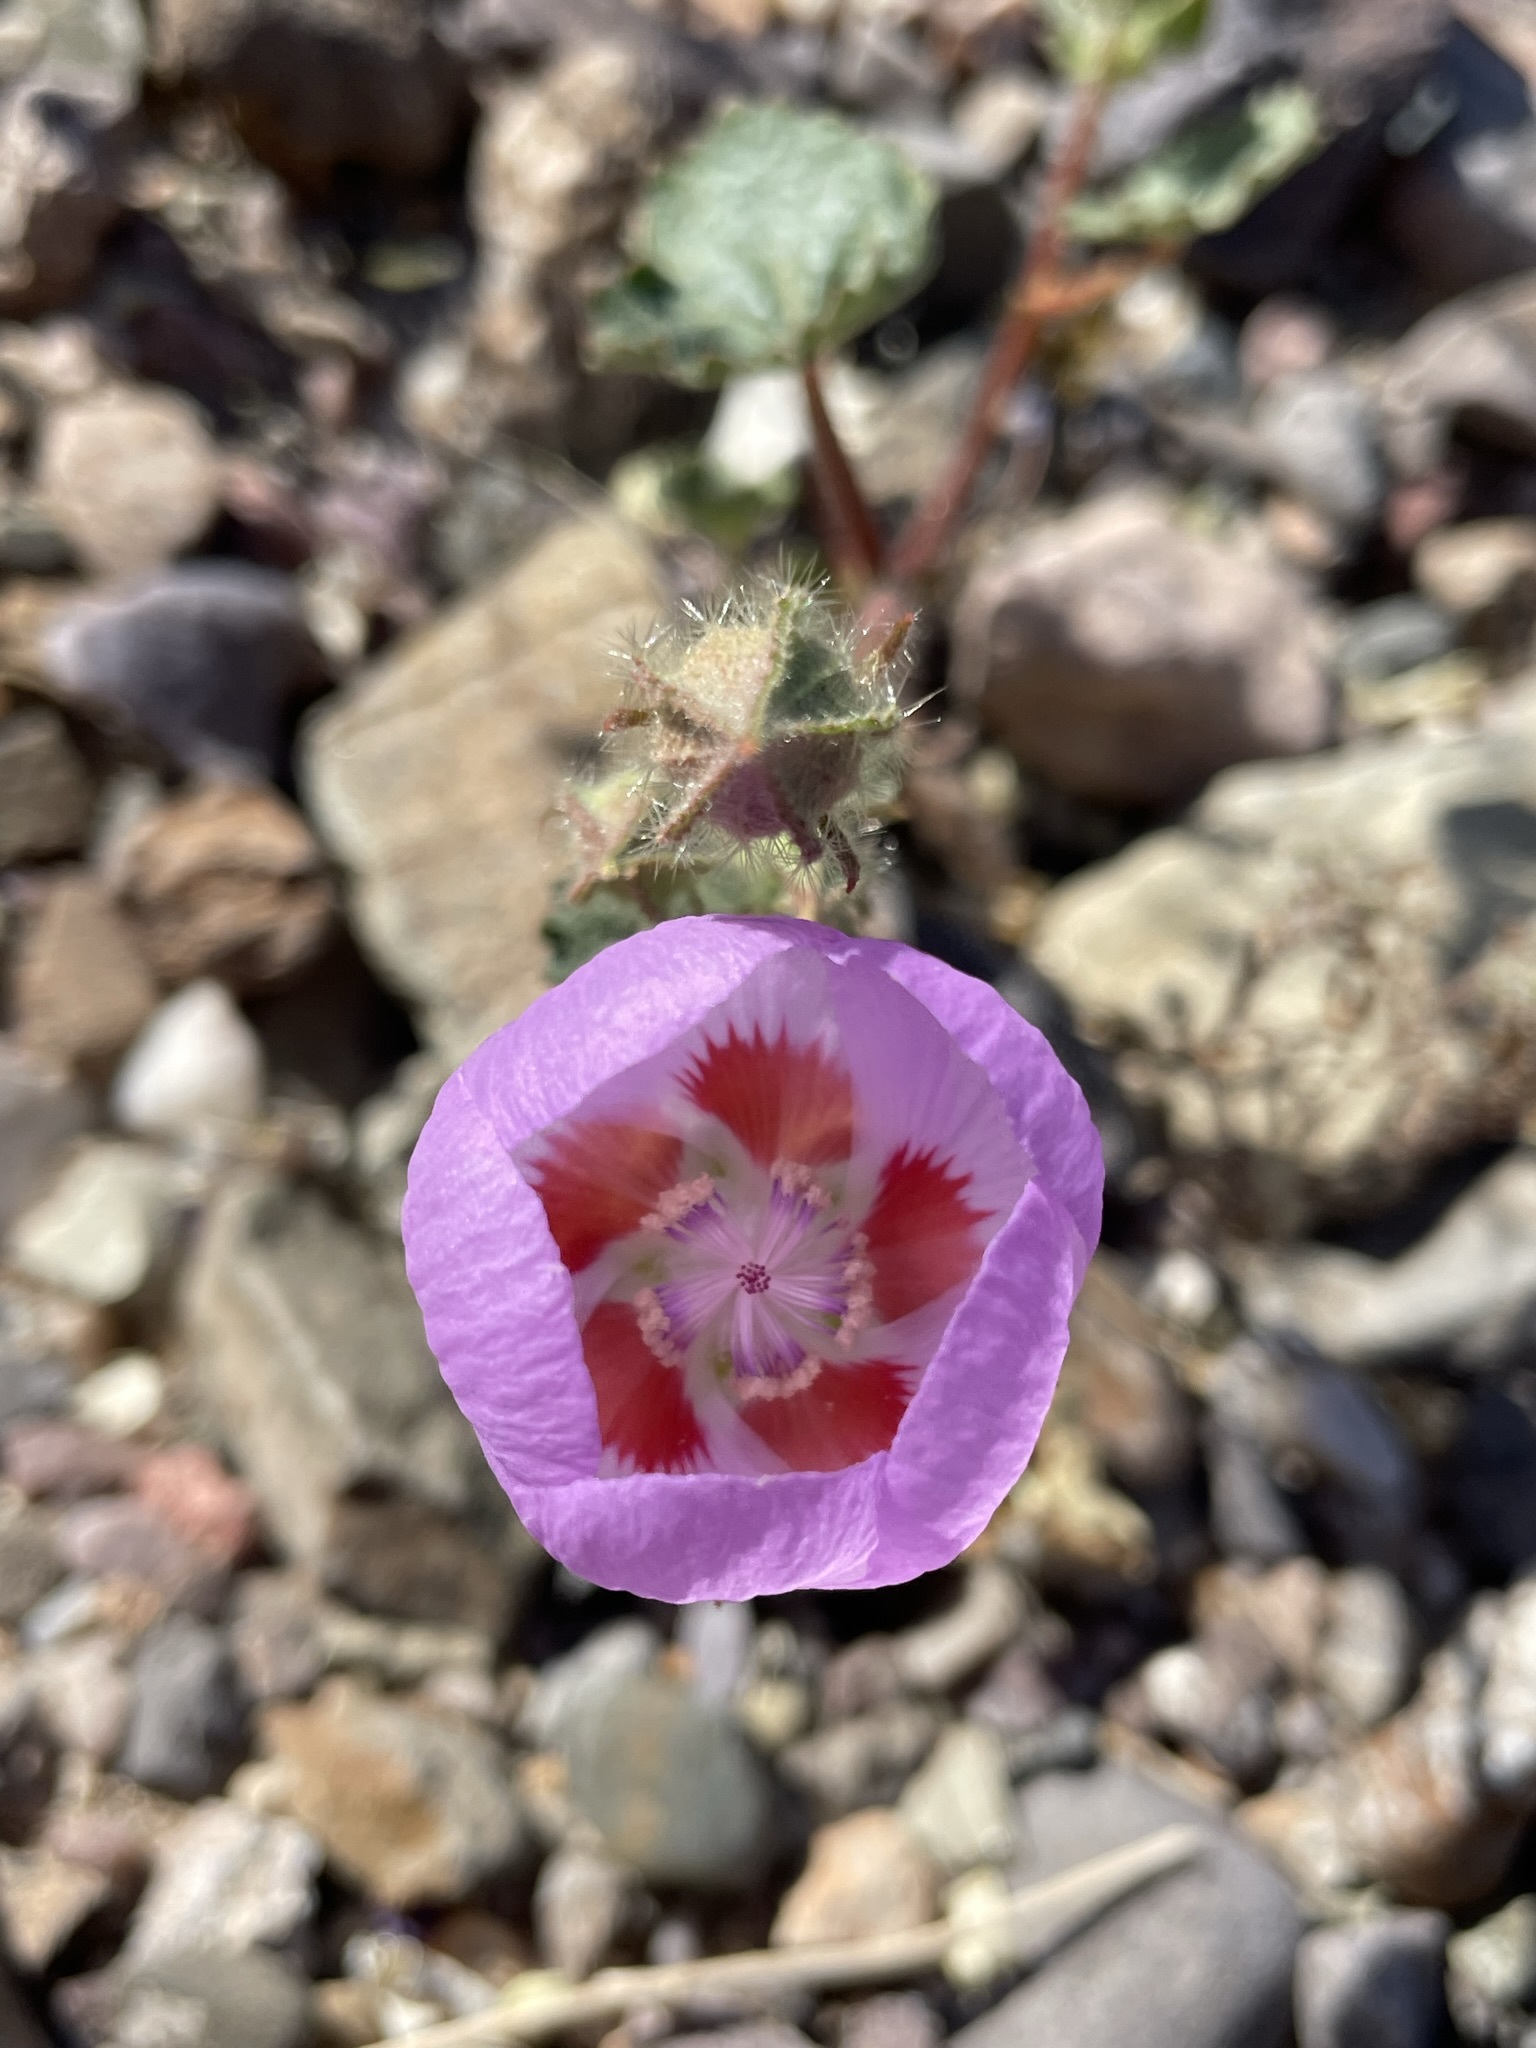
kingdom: Plantae
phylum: Tracheophyta
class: Magnoliopsida
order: Malvales
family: Malvaceae
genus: Eremalche
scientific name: Eremalche rotundifolia
